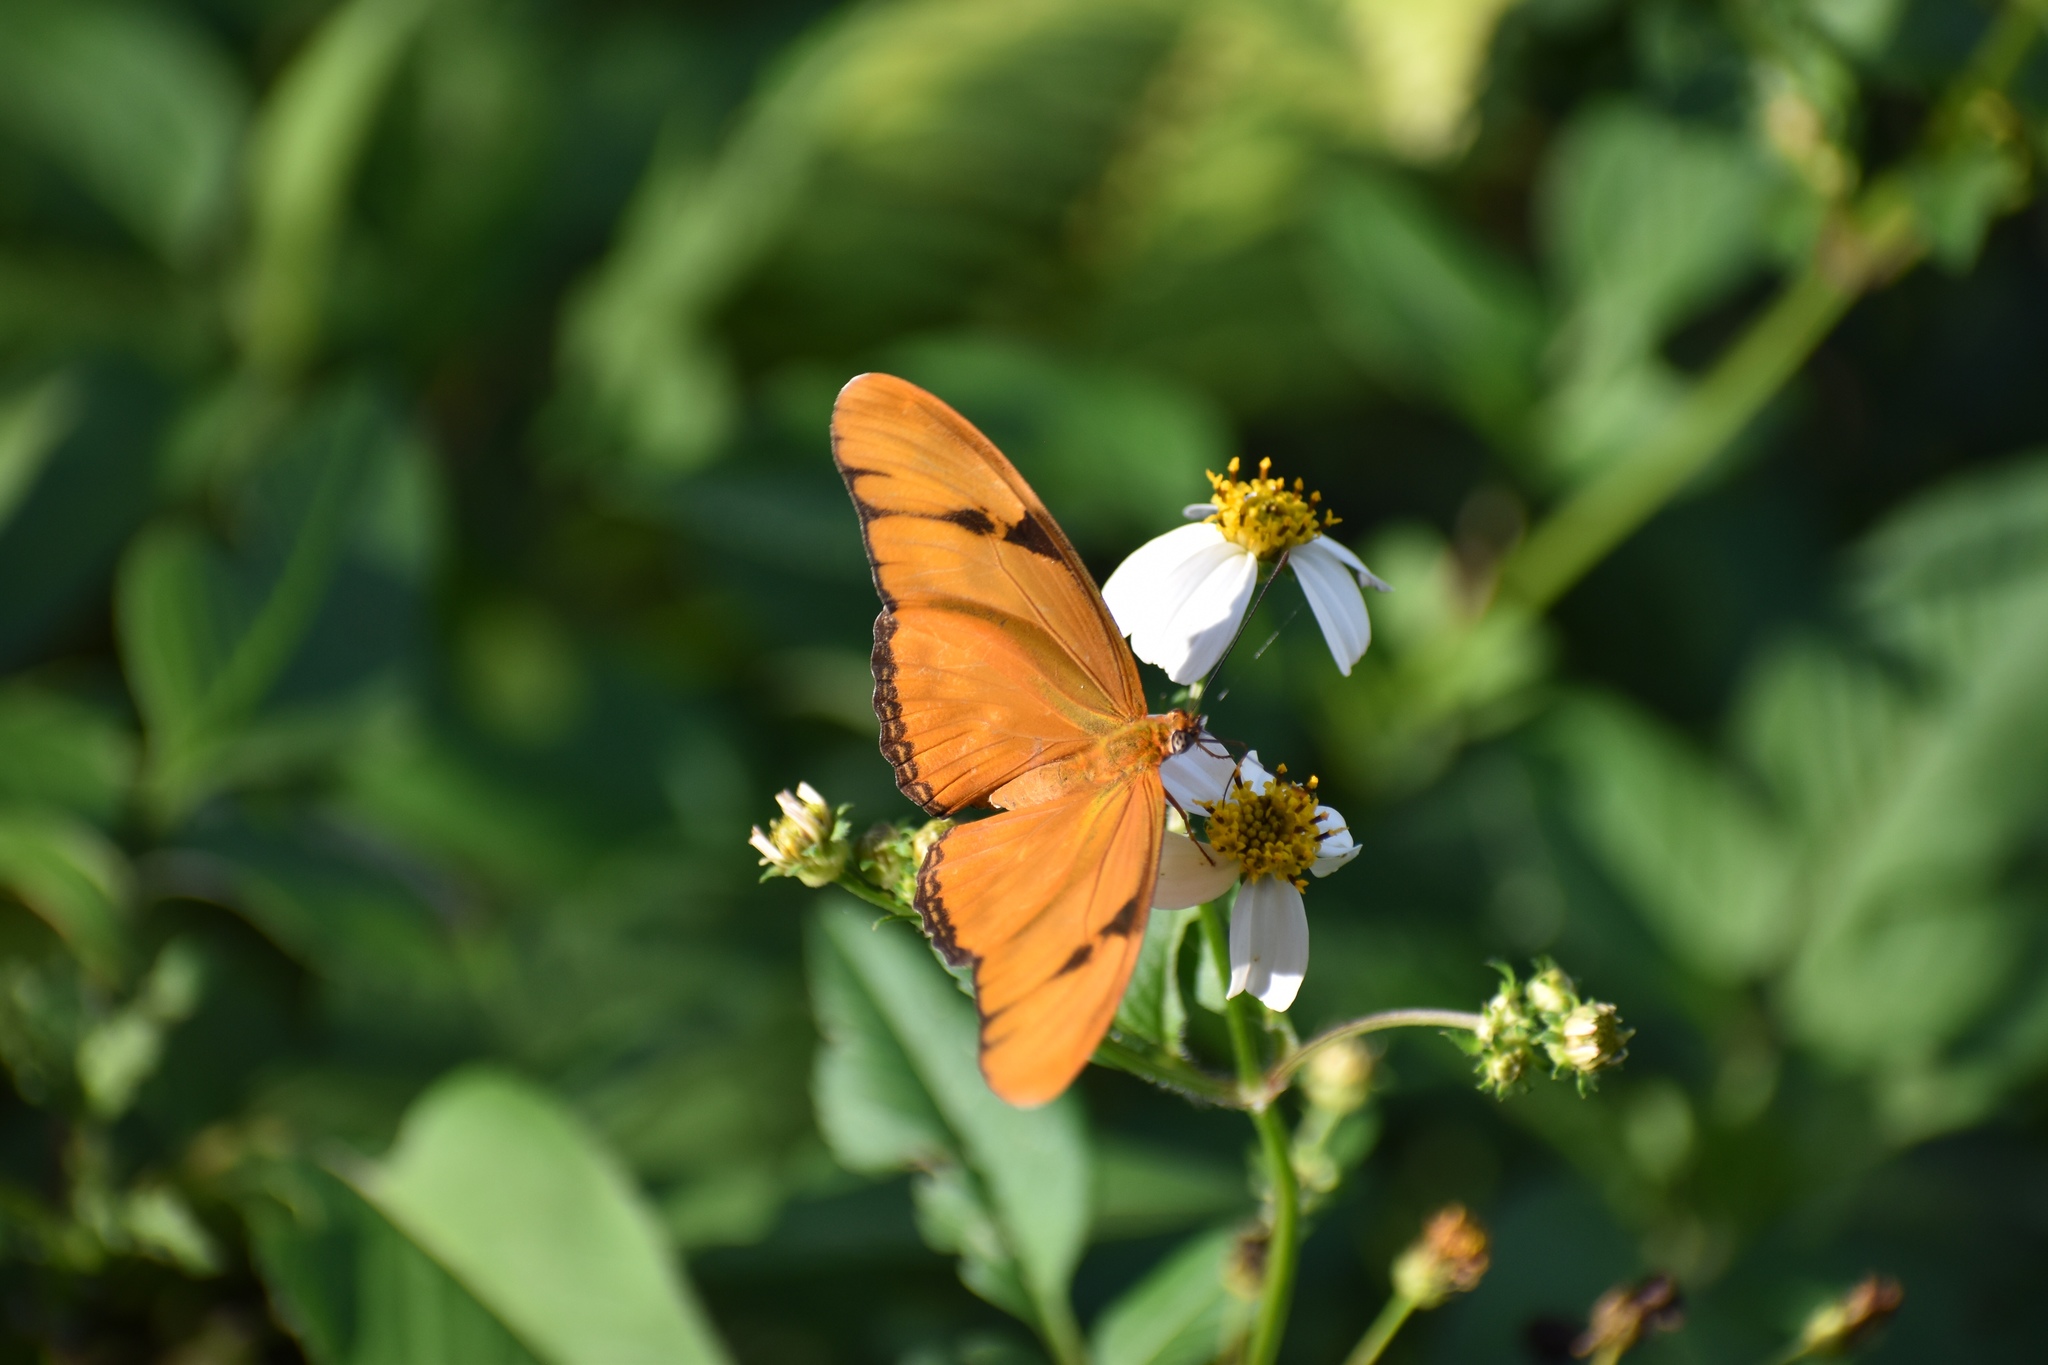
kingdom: Animalia
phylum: Arthropoda
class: Insecta
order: Lepidoptera
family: Nymphalidae
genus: Dryas
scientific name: Dryas iulia
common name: Flambeau
